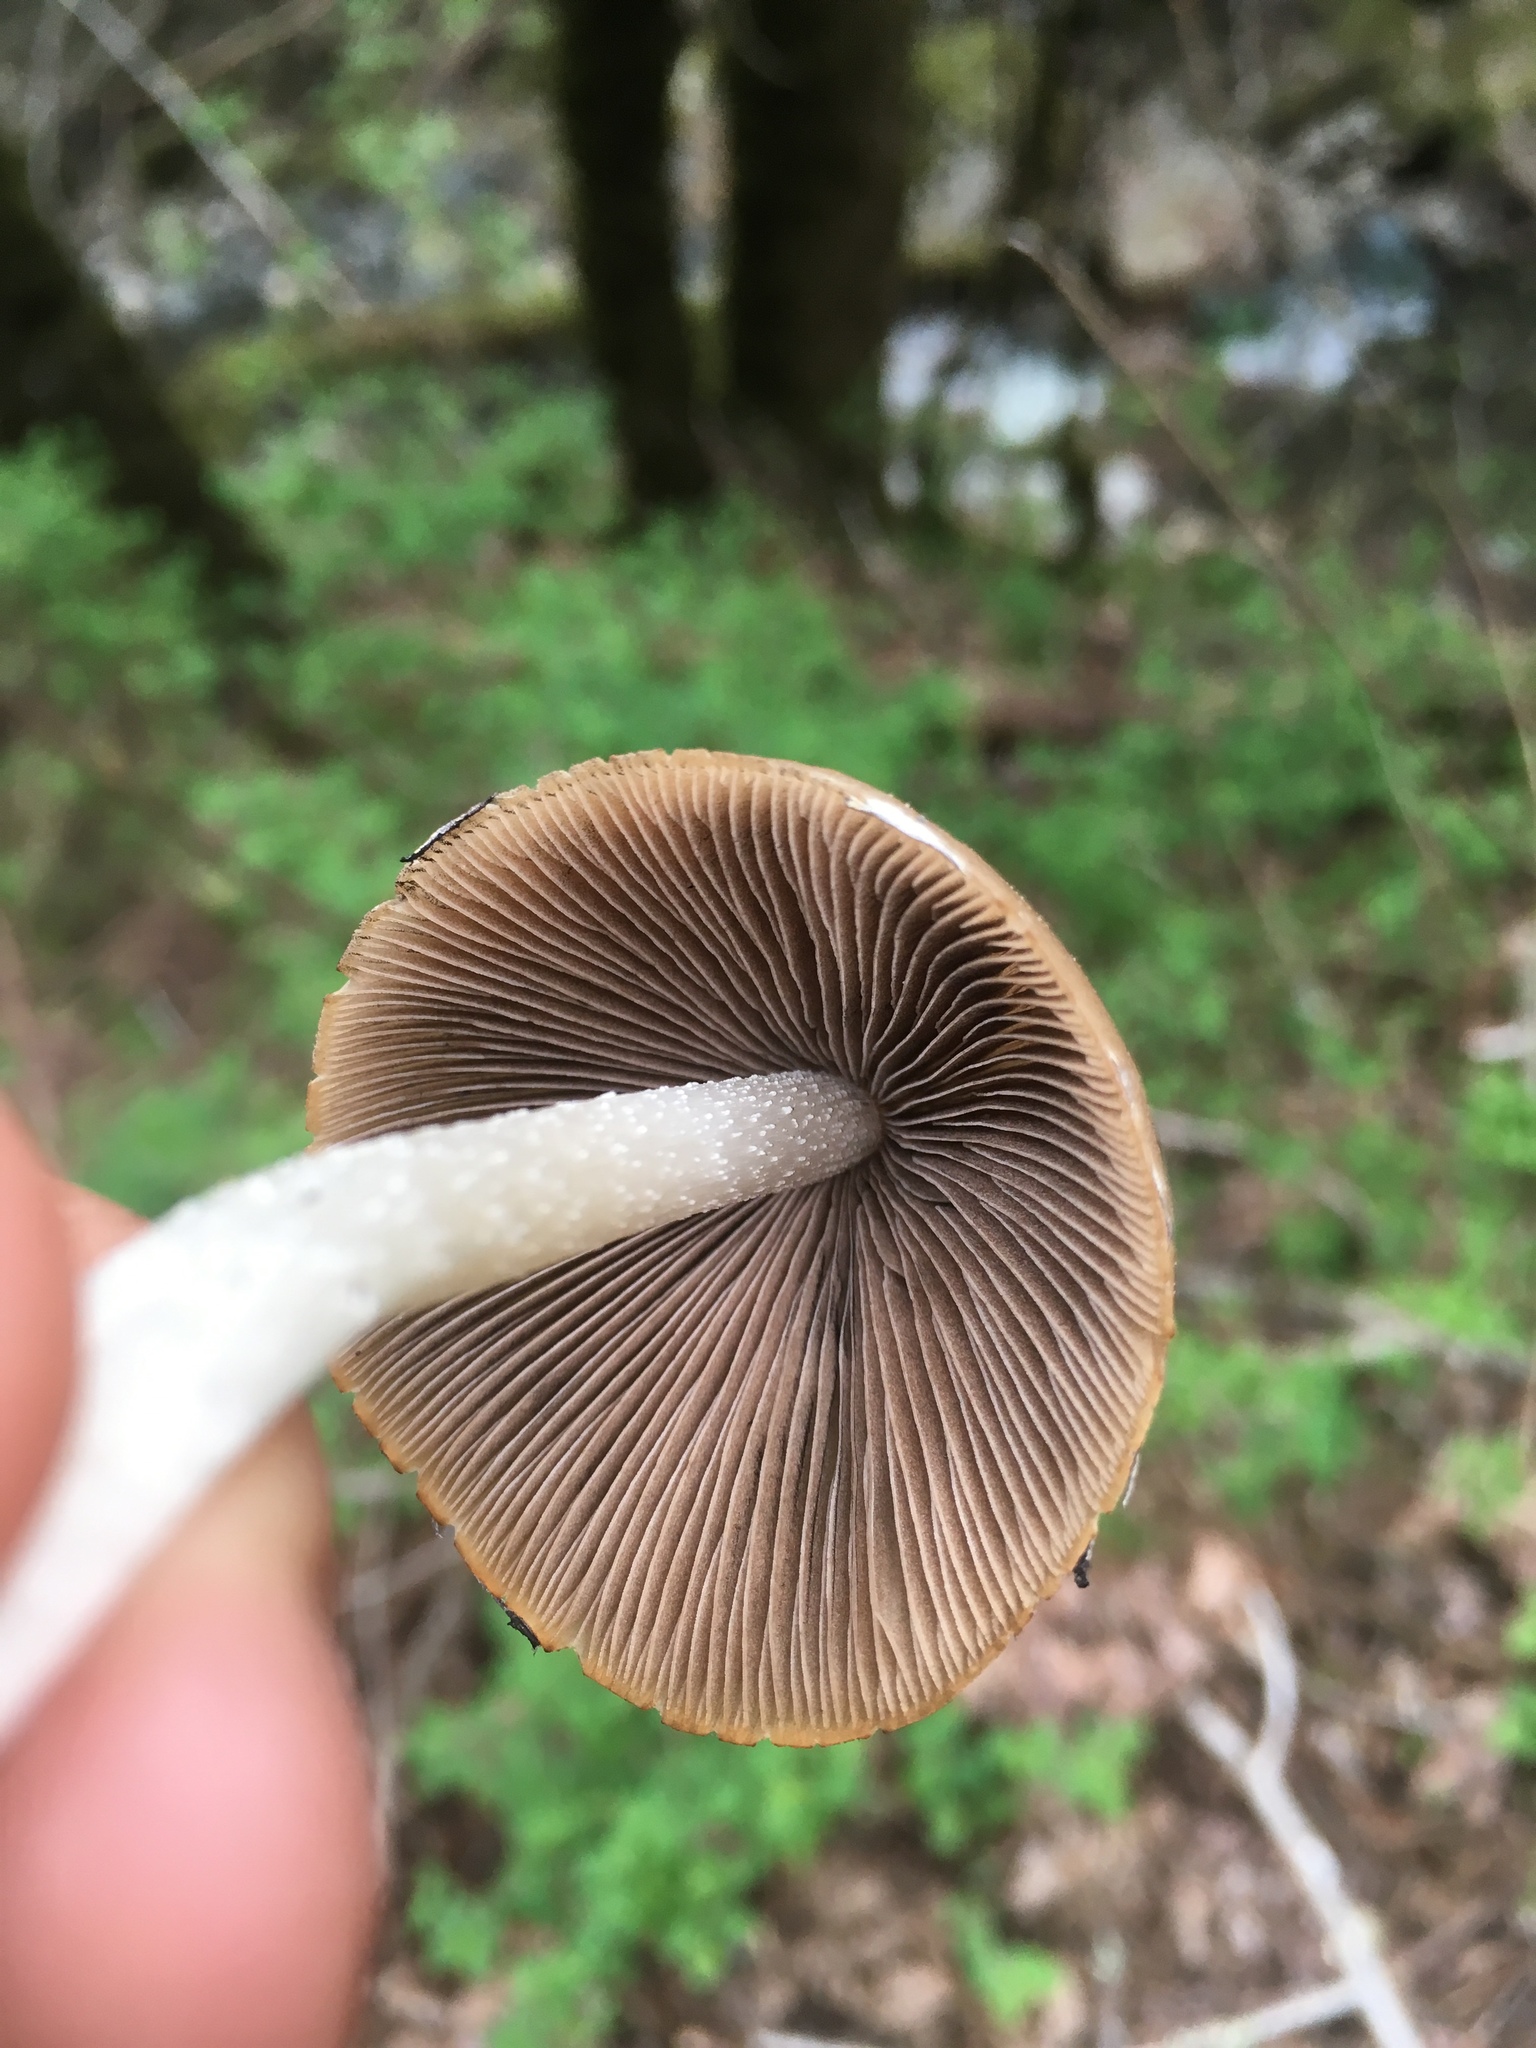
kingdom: Fungi
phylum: Basidiomycota
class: Agaricomycetes
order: Agaricales
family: Psathyrellaceae
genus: Psathyrella
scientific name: Psathyrella longipes
